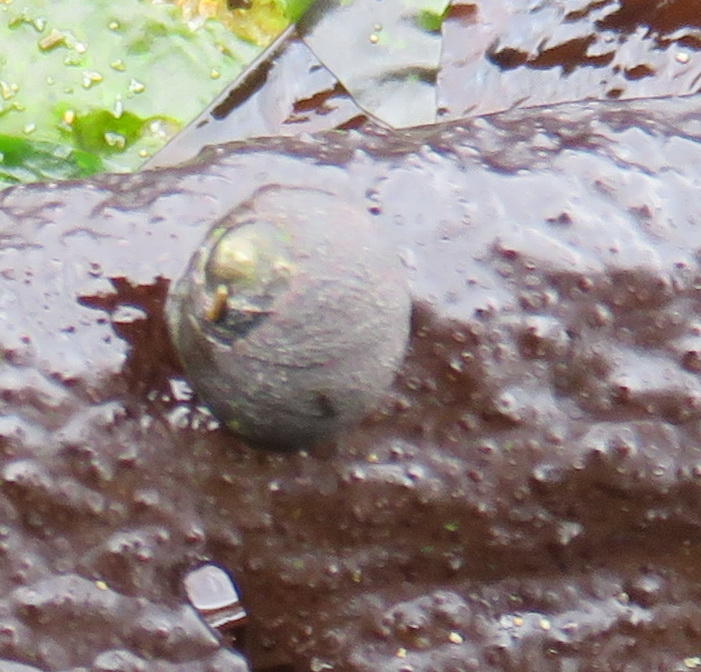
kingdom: Animalia
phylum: Mollusca
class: Gastropoda
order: Trochida
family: Trochidae
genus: Oxystele
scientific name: Oxystele sinensis
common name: Pink-lipped topshell
